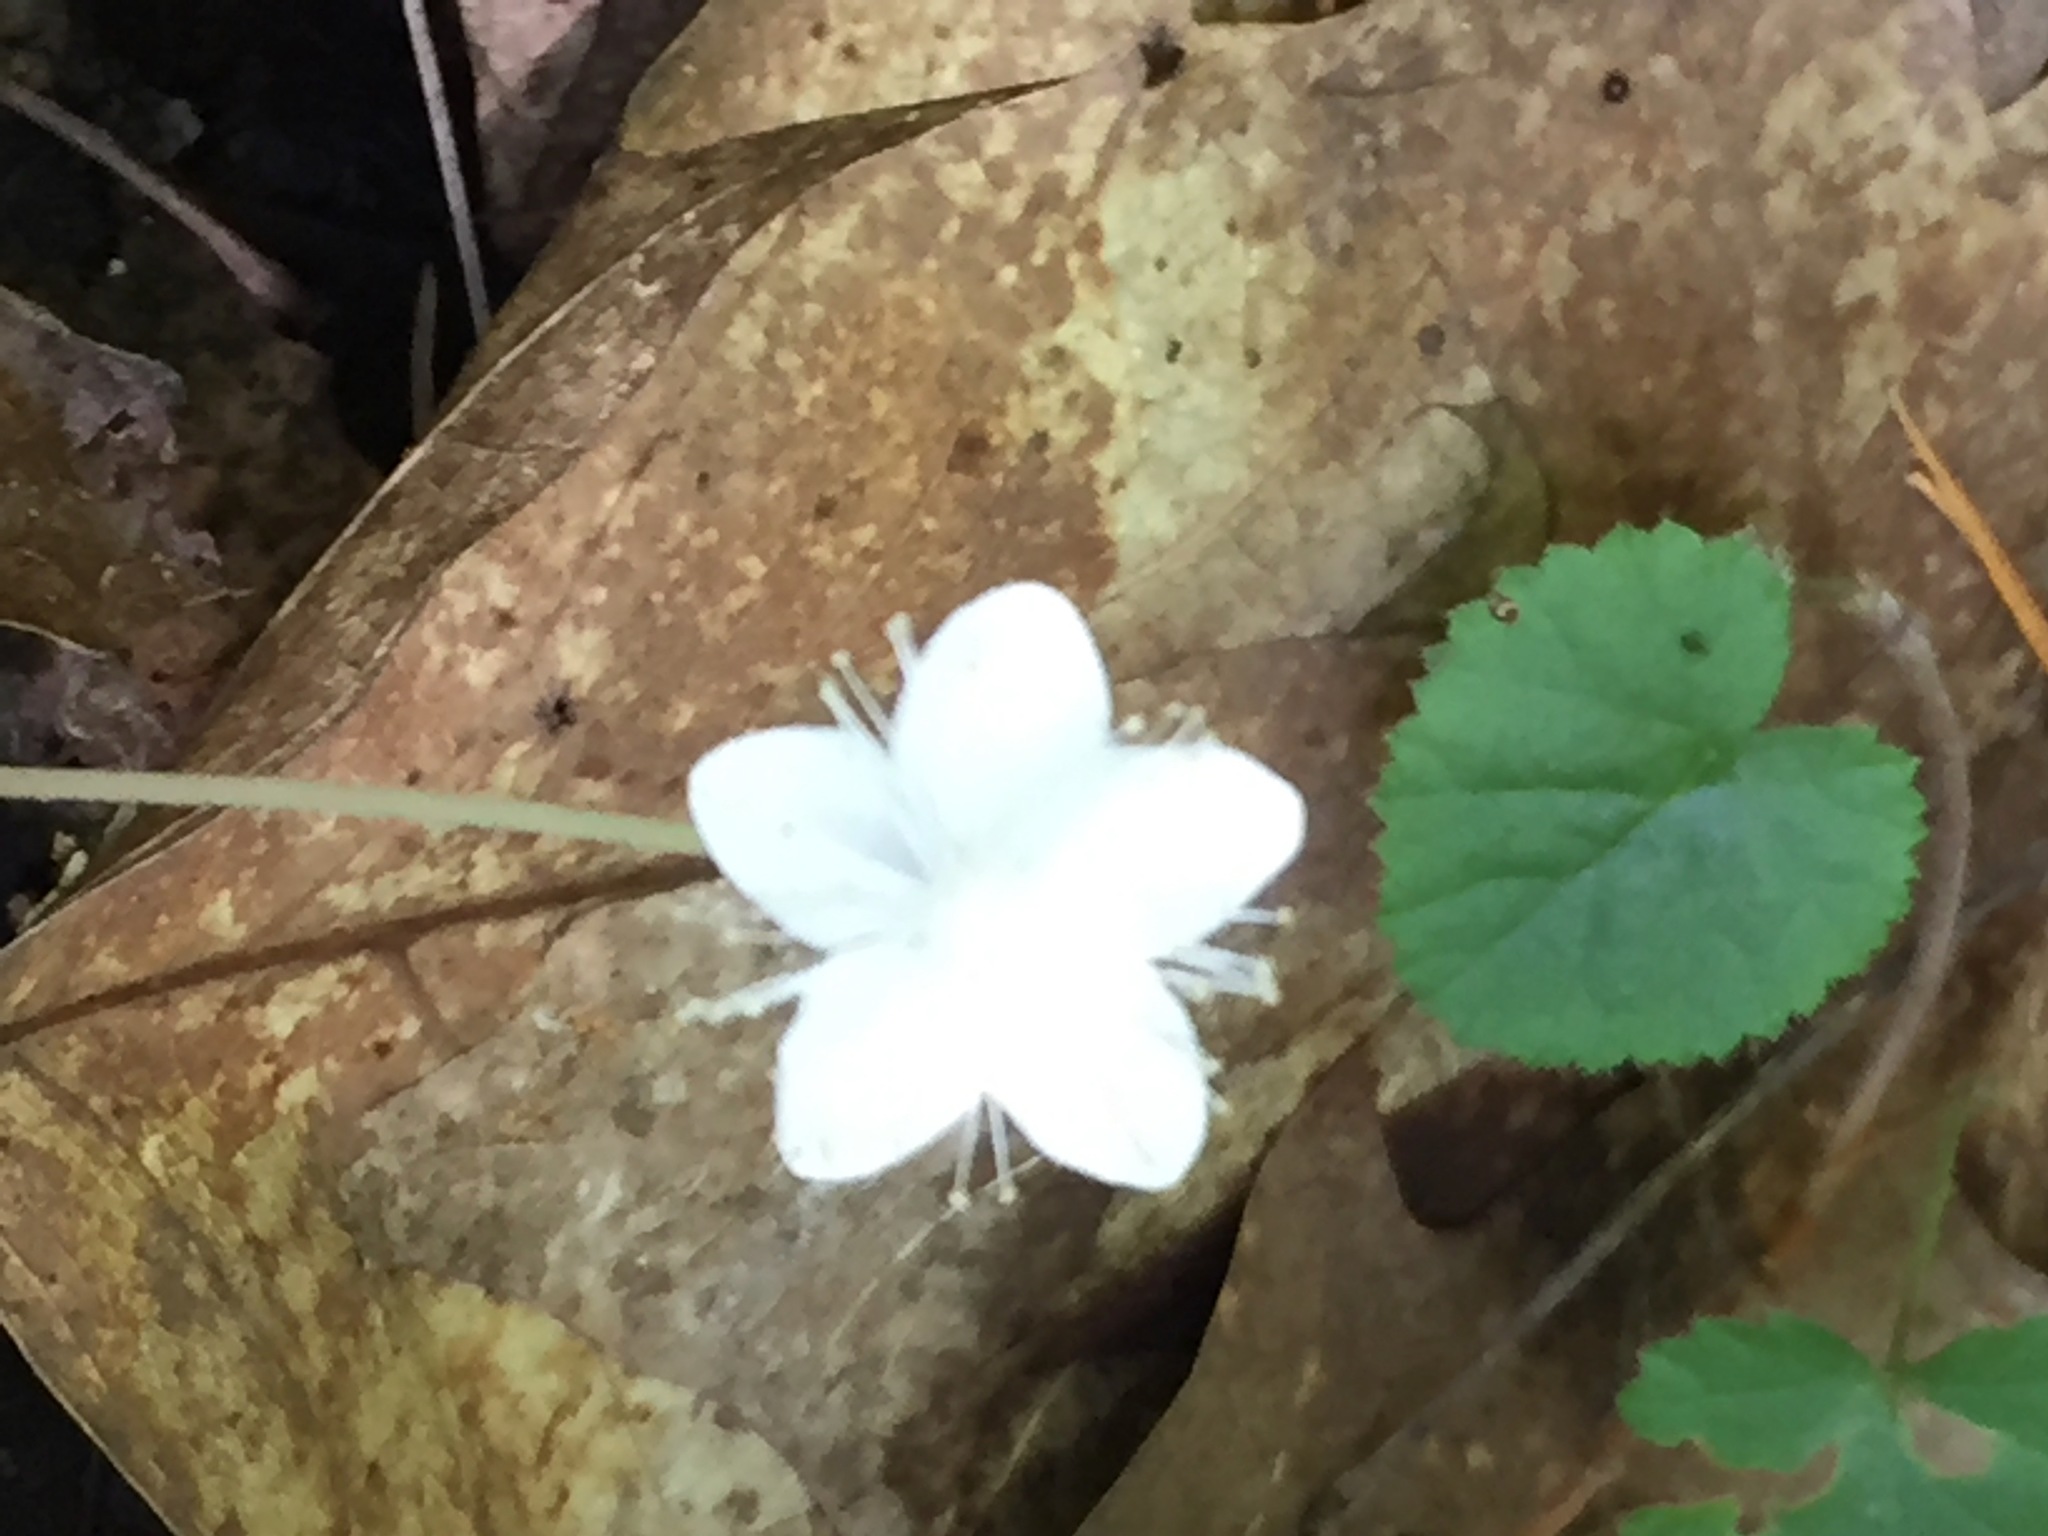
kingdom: Plantae
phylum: Tracheophyta
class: Magnoliopsida
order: Rosales
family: Rosaceae
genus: Dalibarda
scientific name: Dalibarda repens
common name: Dewdrop
